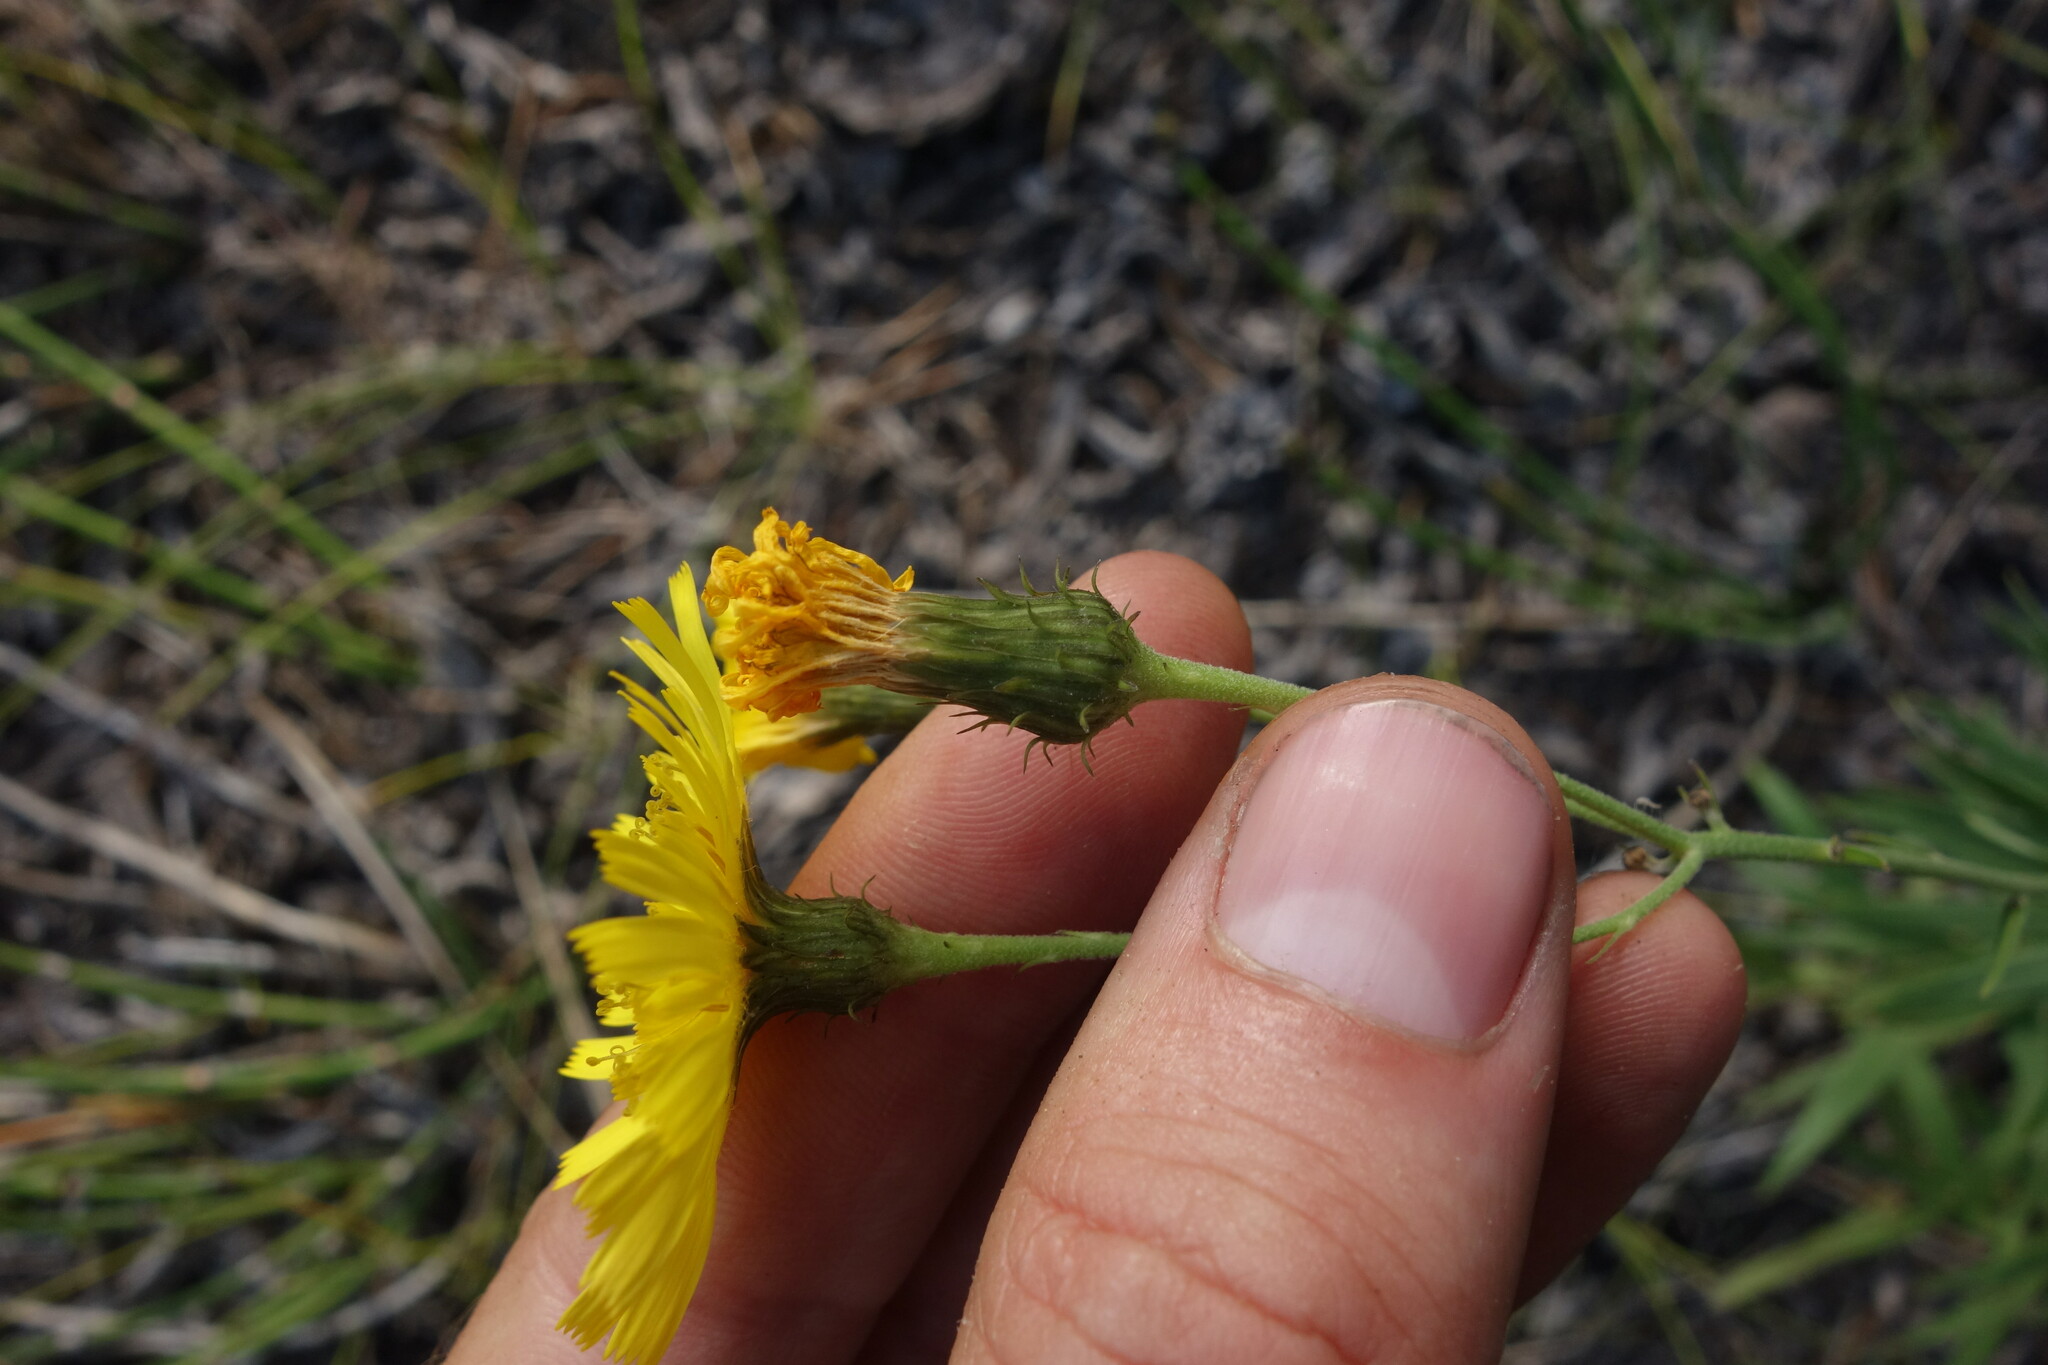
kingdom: Plantae
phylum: Tracheophyta
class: Magnoliopsida
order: Asterales
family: Asteraceae
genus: Hieracium
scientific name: Hieracium umbellatum
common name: Northern hawkweed
